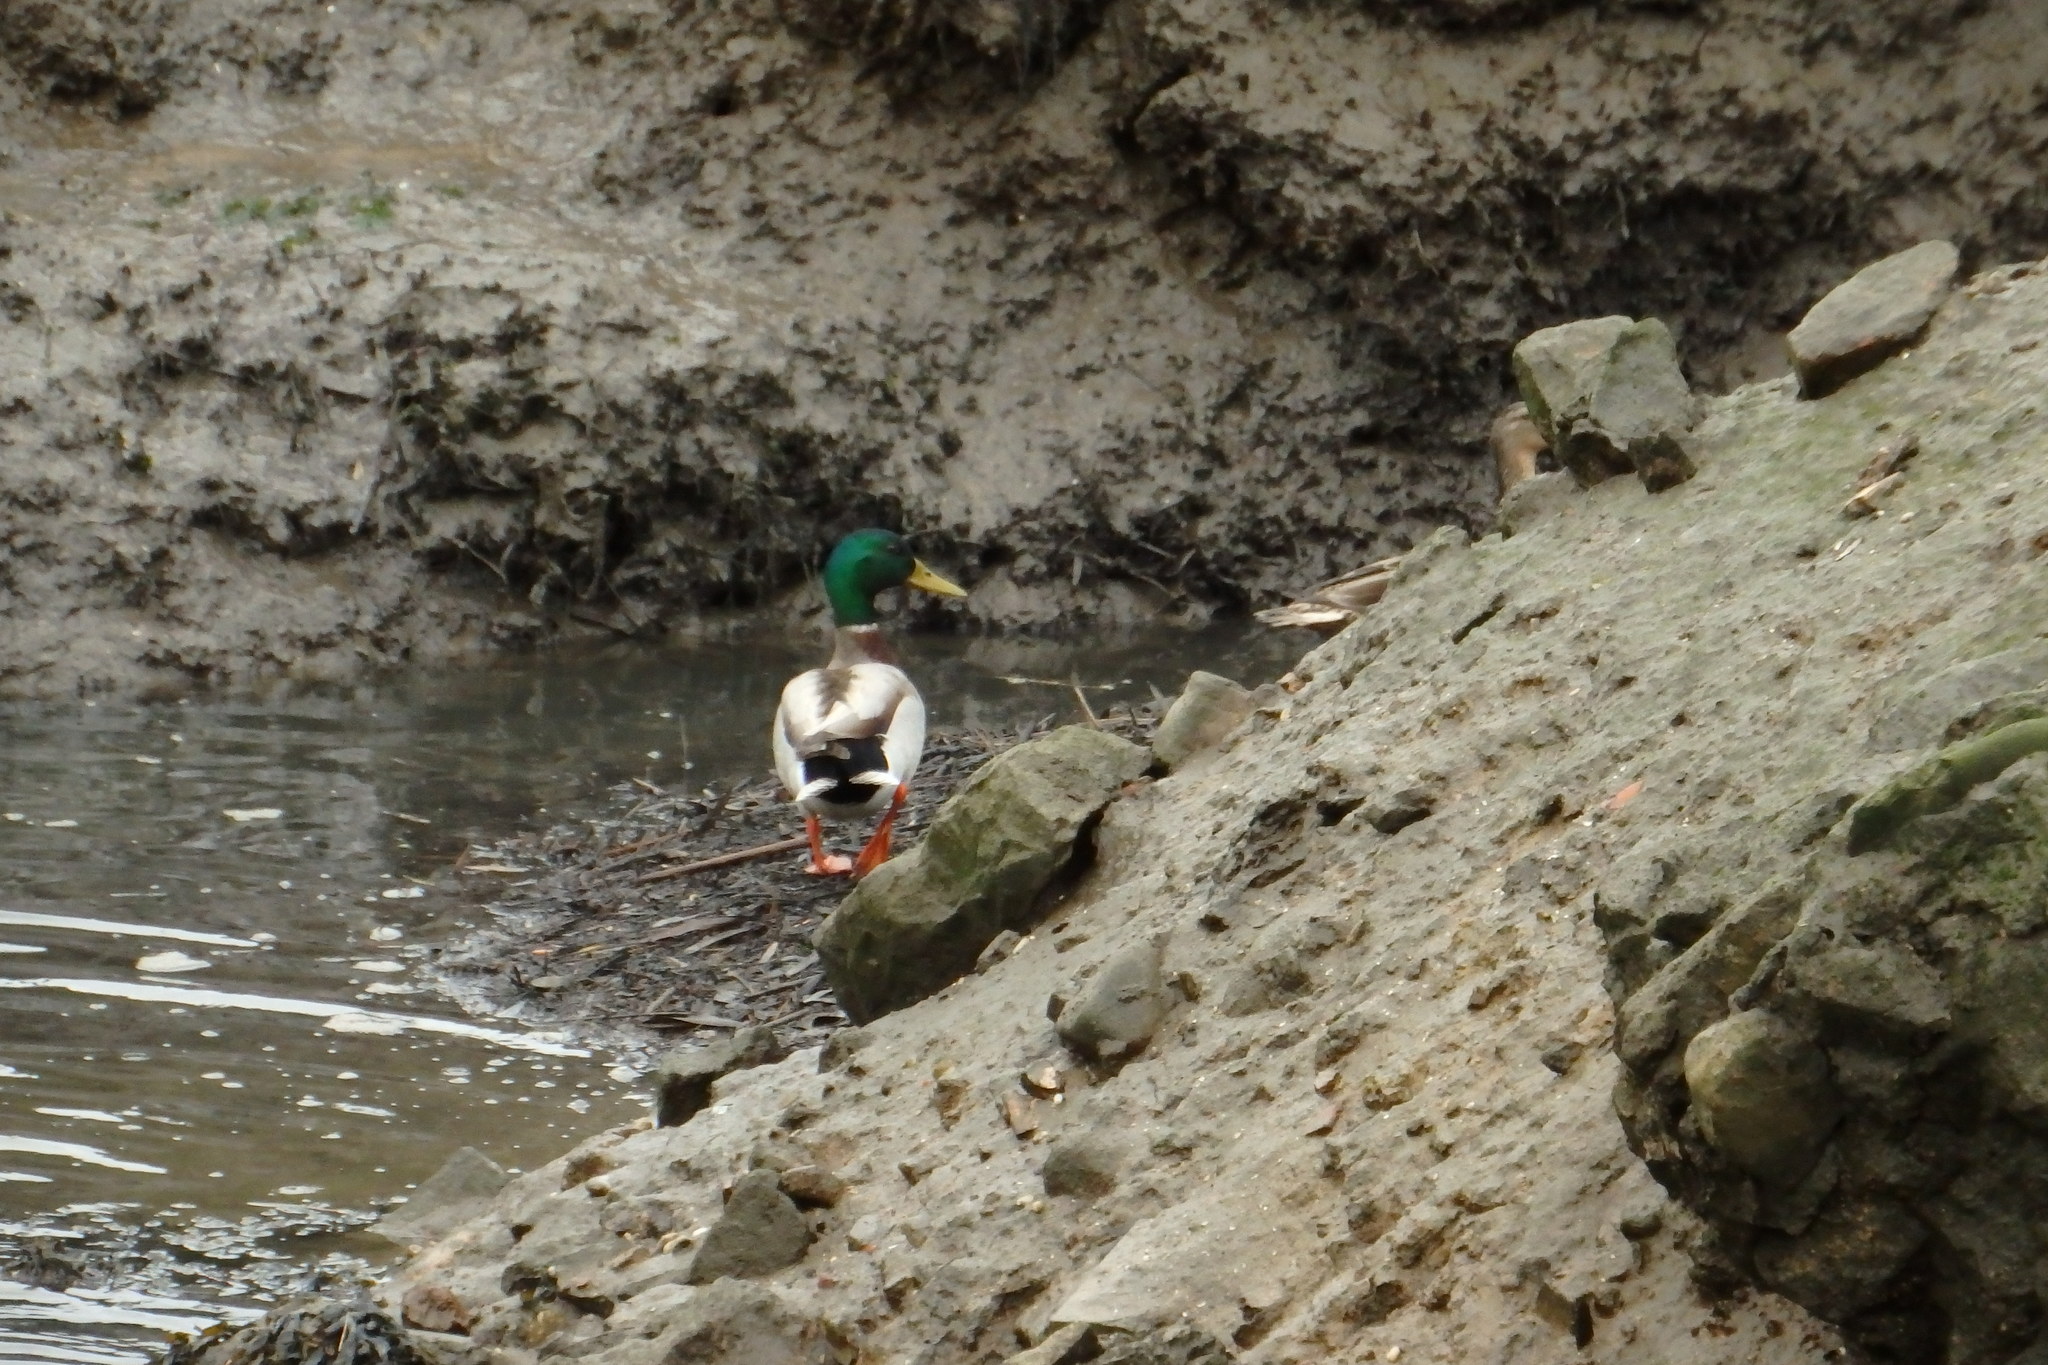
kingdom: Animalia
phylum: Chordata
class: Aves
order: Anseriformes
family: Anatidae
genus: Anas
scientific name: Anas platyrhynchos
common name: Mallard
